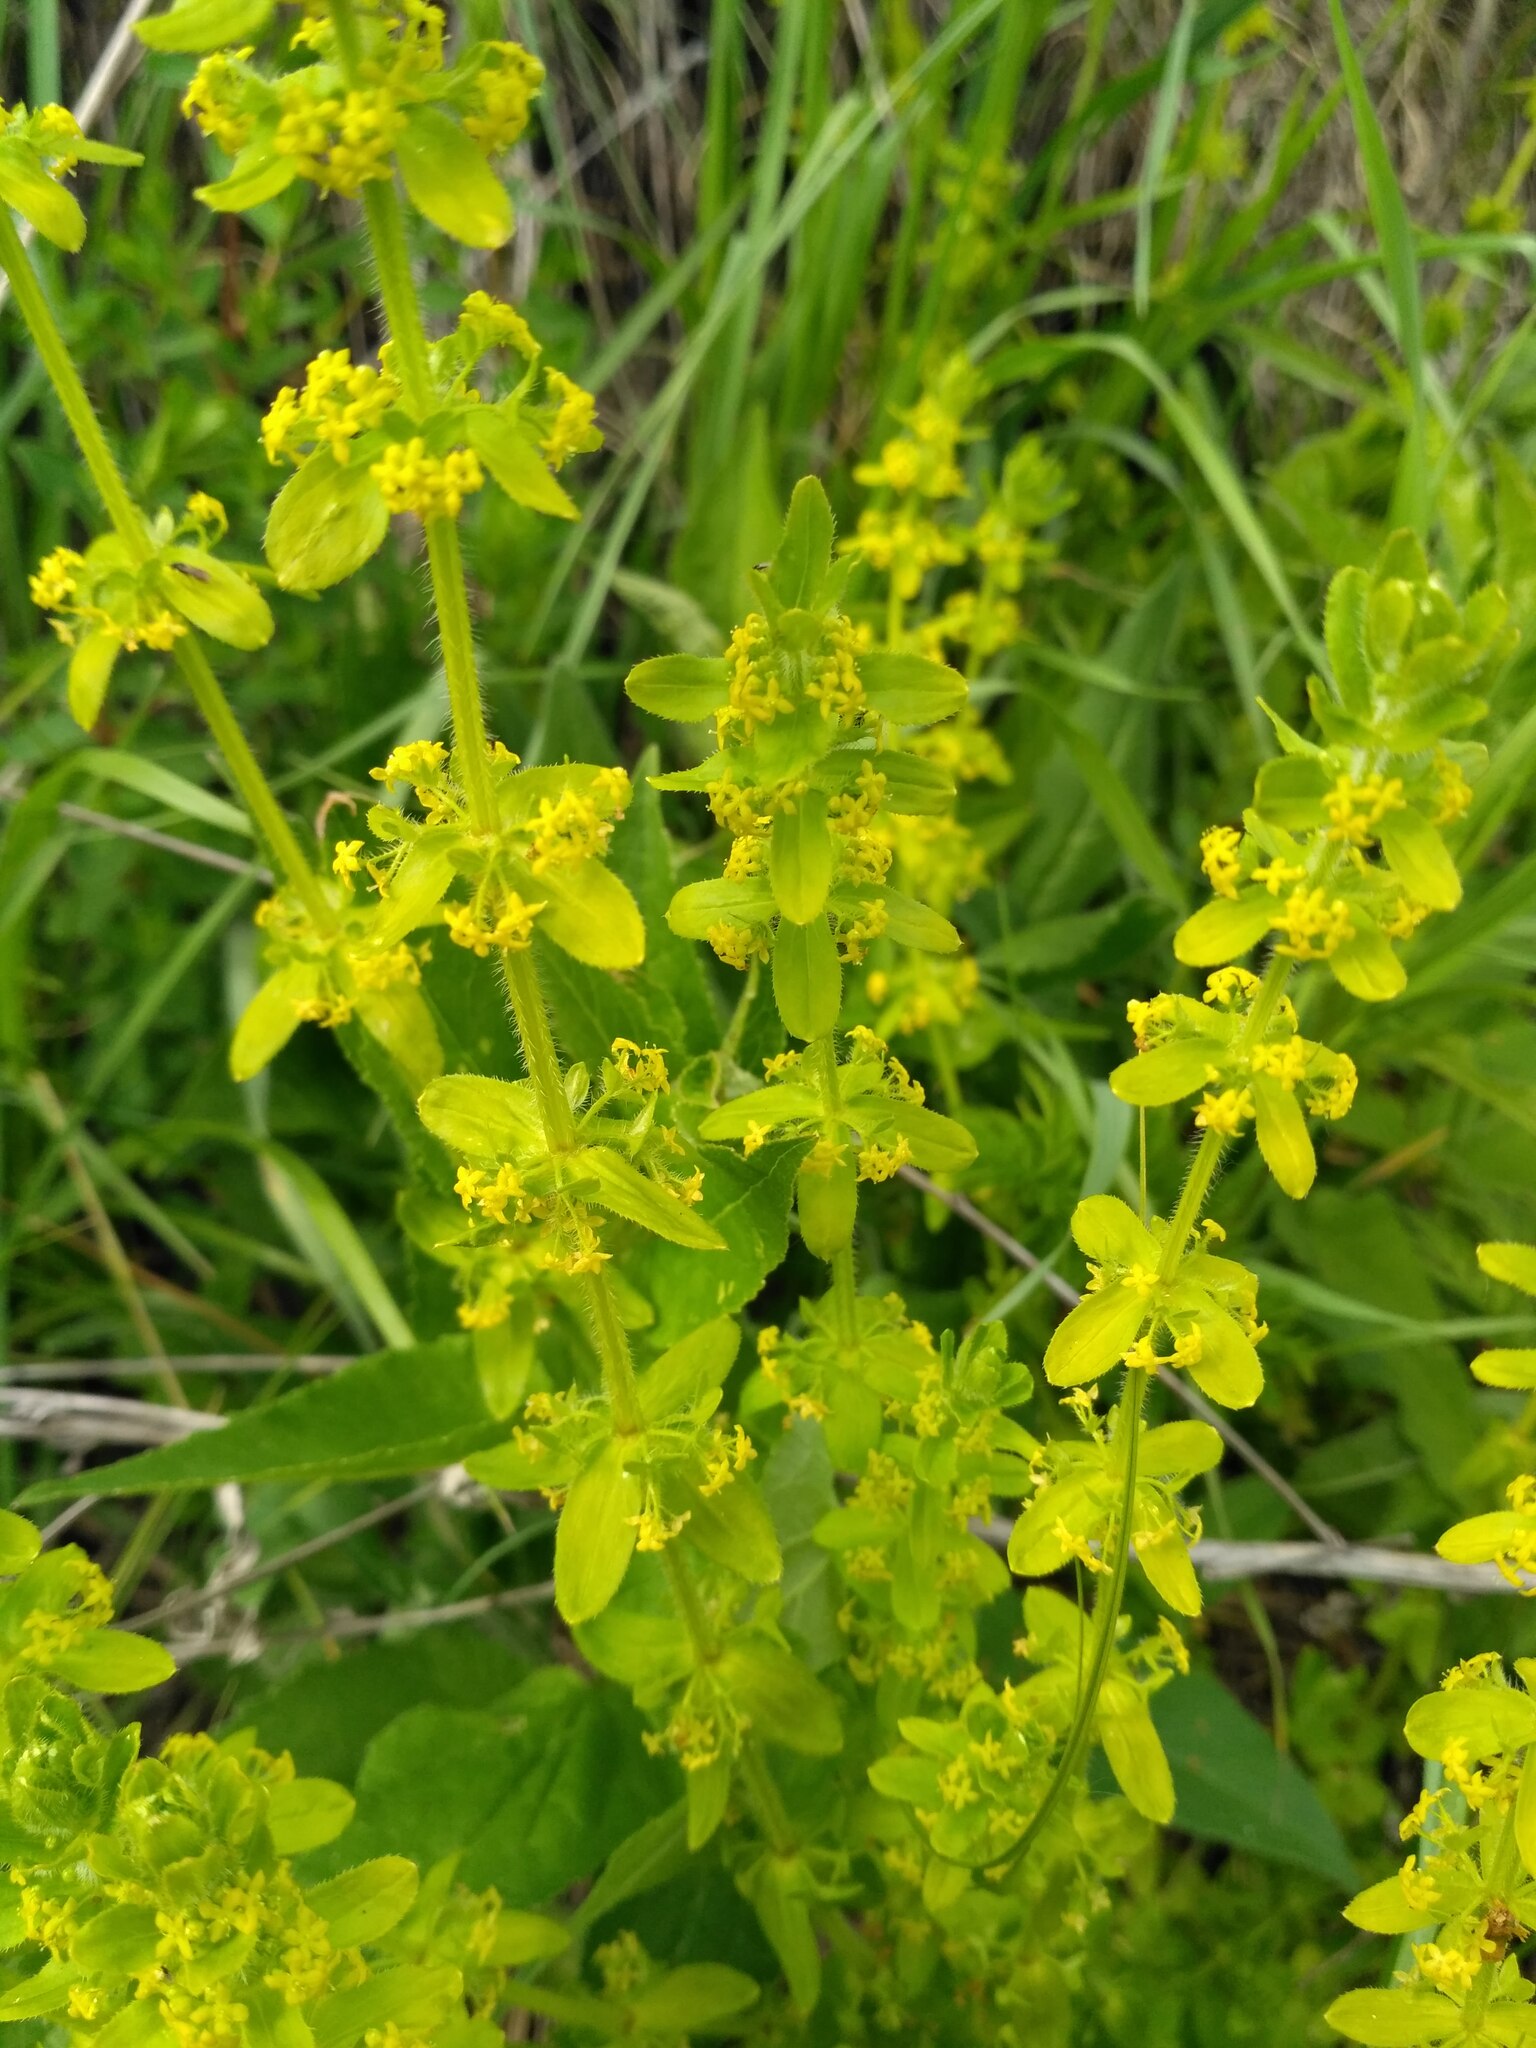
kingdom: Plantae
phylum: Tracheophyta
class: Magnoliopsida
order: Gentianales
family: Rubiaceae
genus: Cruciata
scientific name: Cruciata laevipes
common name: Crosswort
